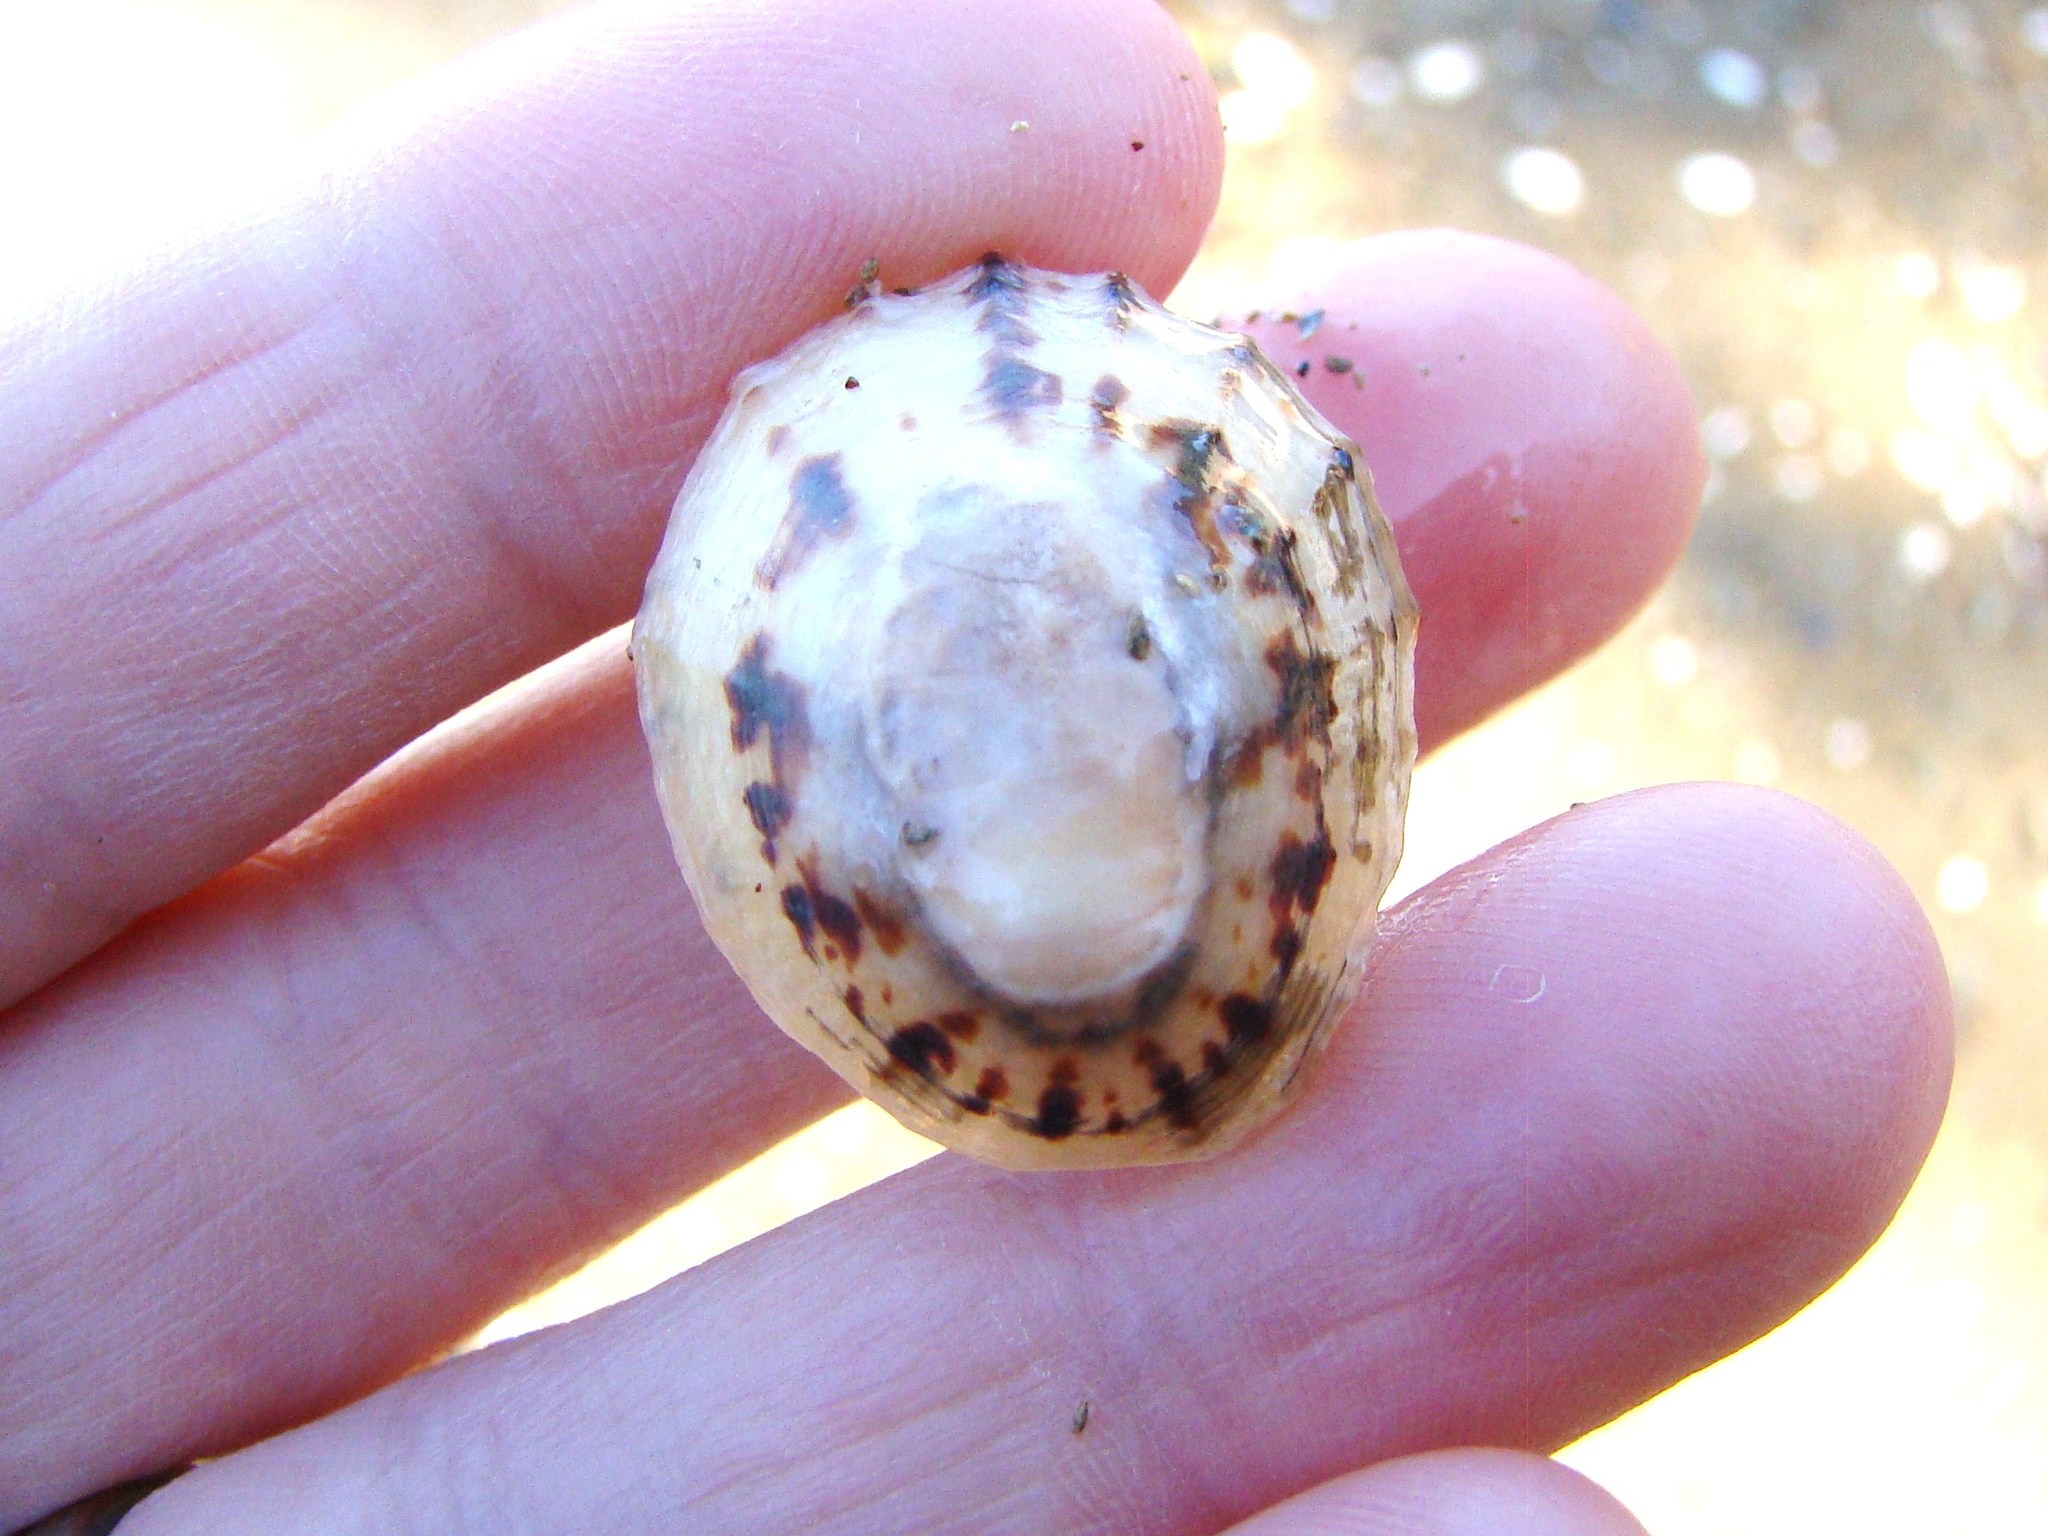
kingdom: Animalia
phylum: Mollusca
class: Gastropoda
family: Nacellidae
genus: Cellana
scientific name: Cellana radians
